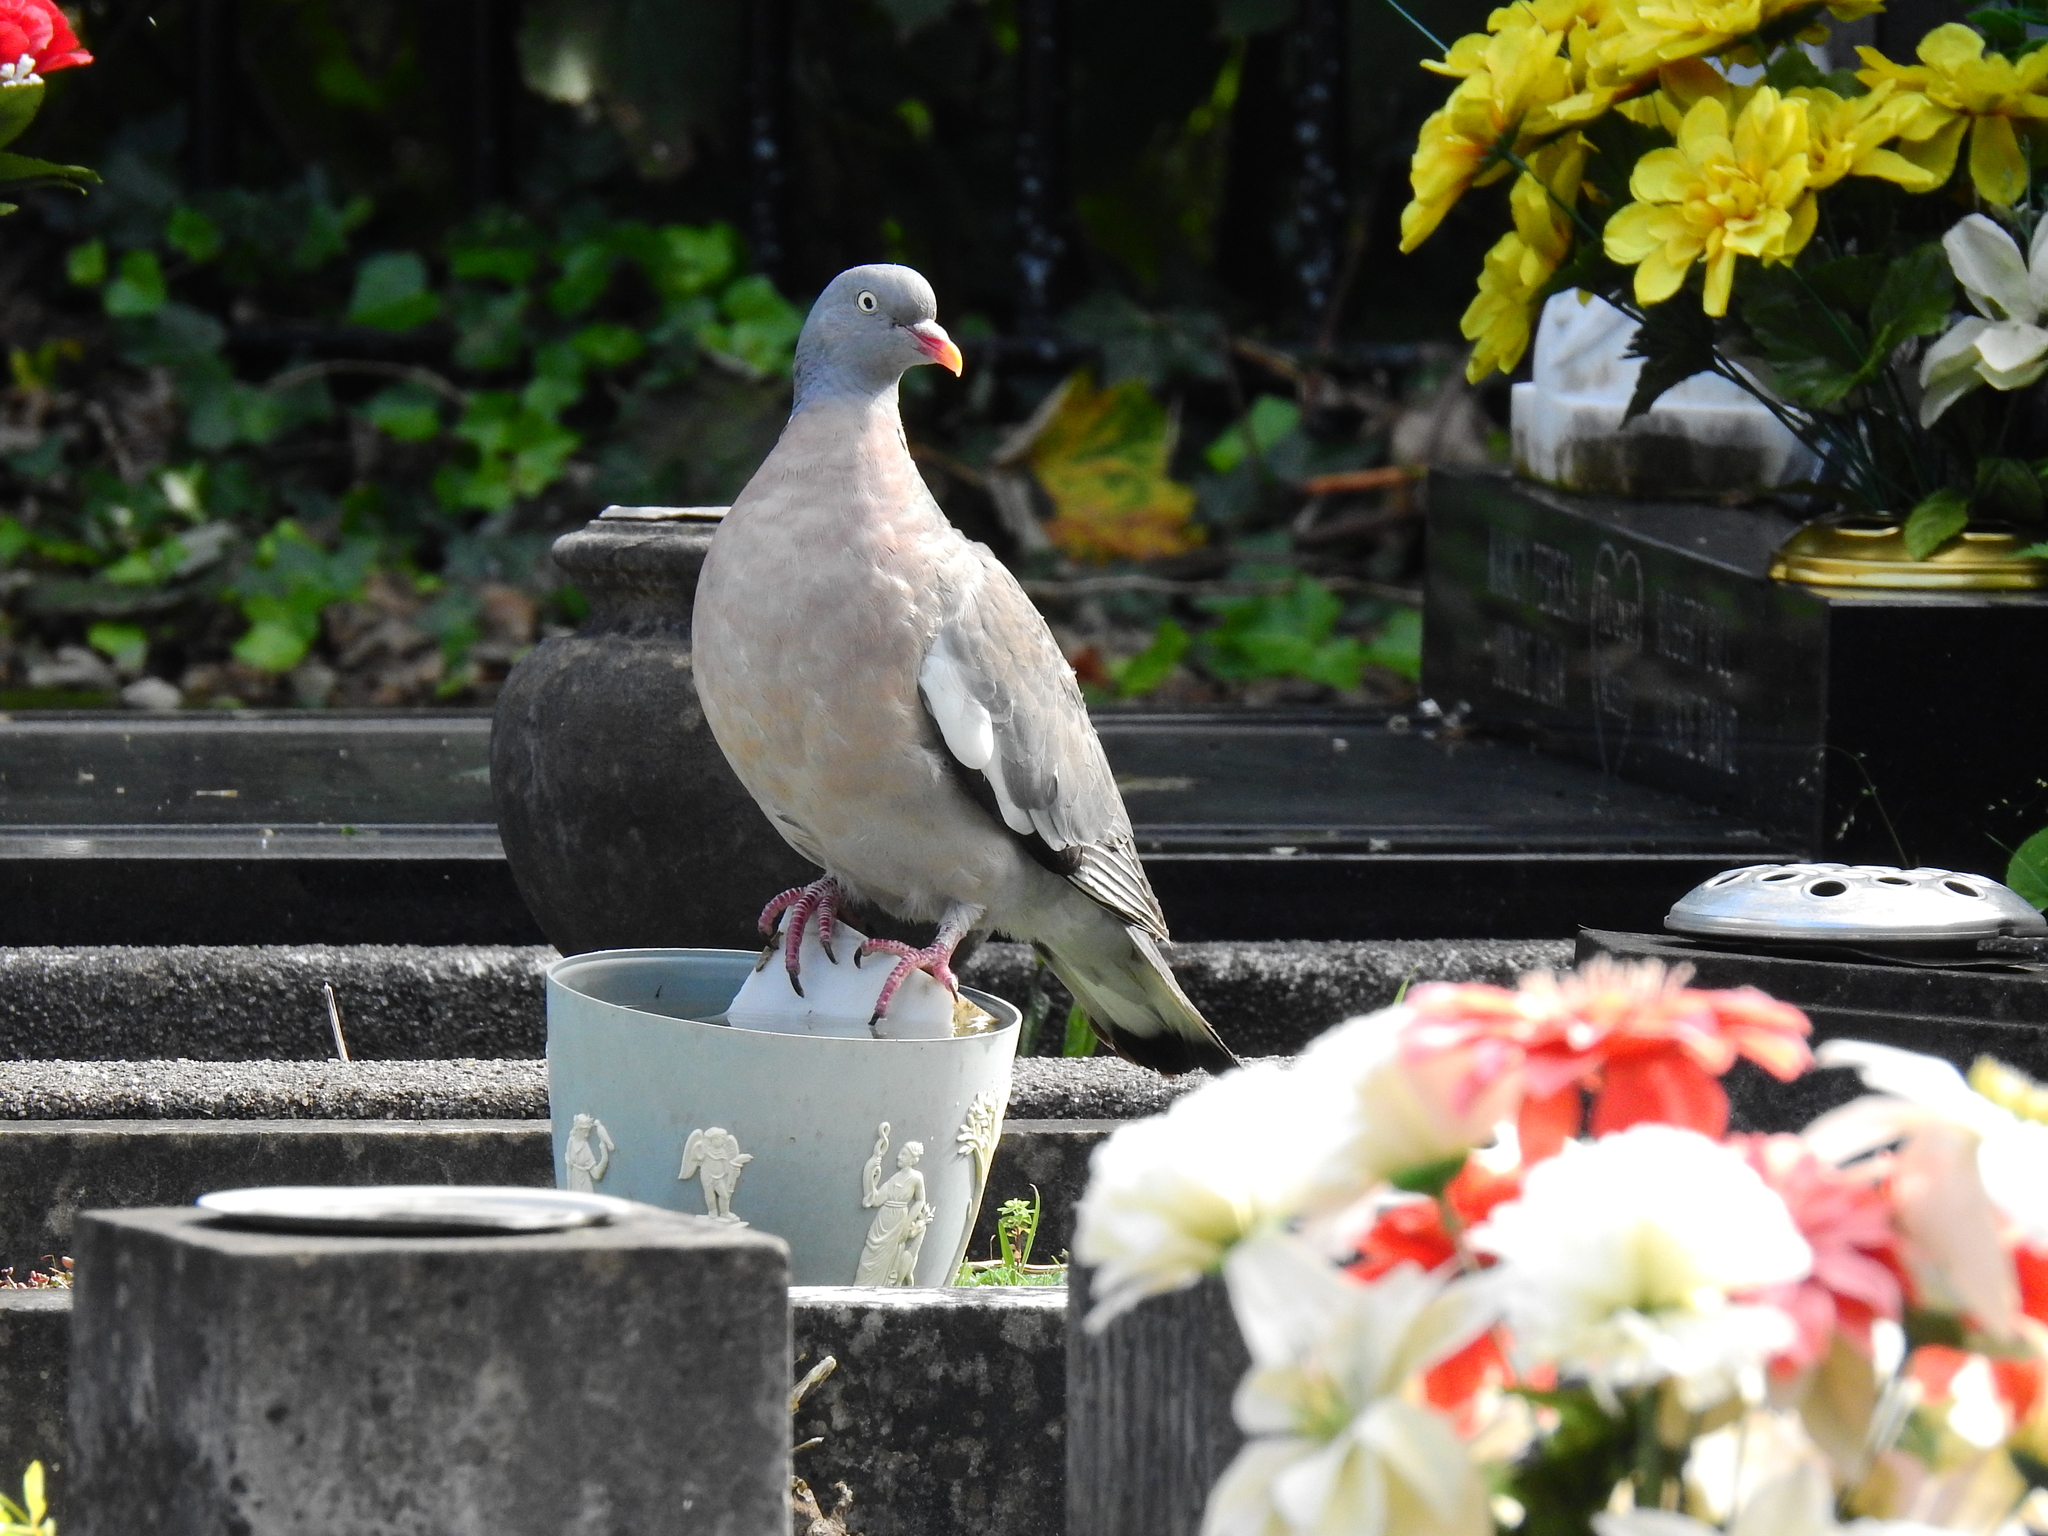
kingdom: Animalia
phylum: Chordata
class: Aves
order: Columbiformes
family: Columbidae
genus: Columba
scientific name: Columba palumbus
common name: Common wood pigeon
